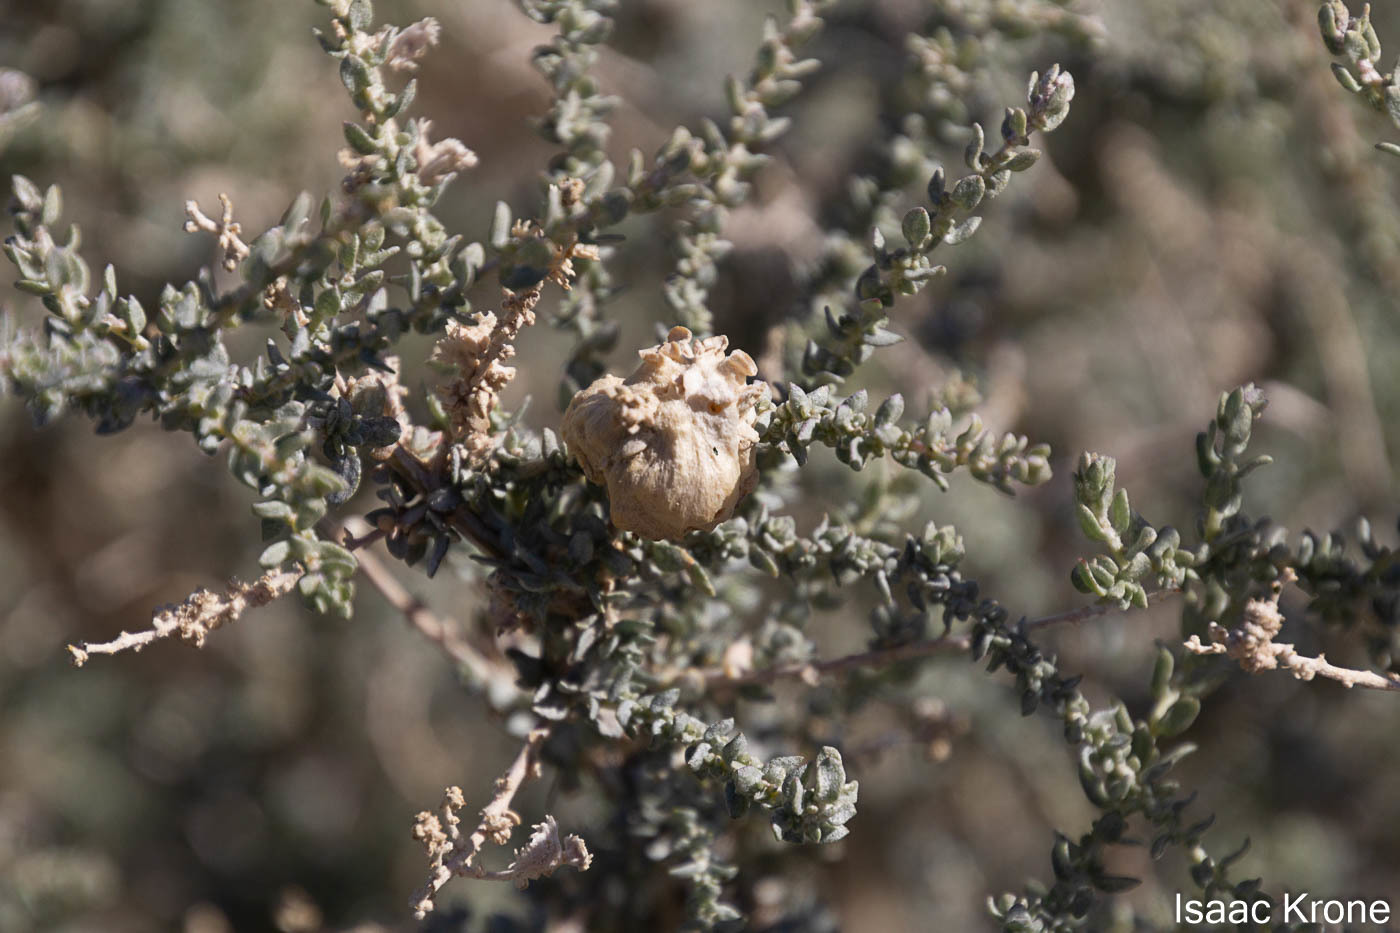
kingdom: Animalia
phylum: Arthropoda
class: Insecta
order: Diptera
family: Cecidomyiidae
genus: Asphondylia
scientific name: Asphondylia floccosa
